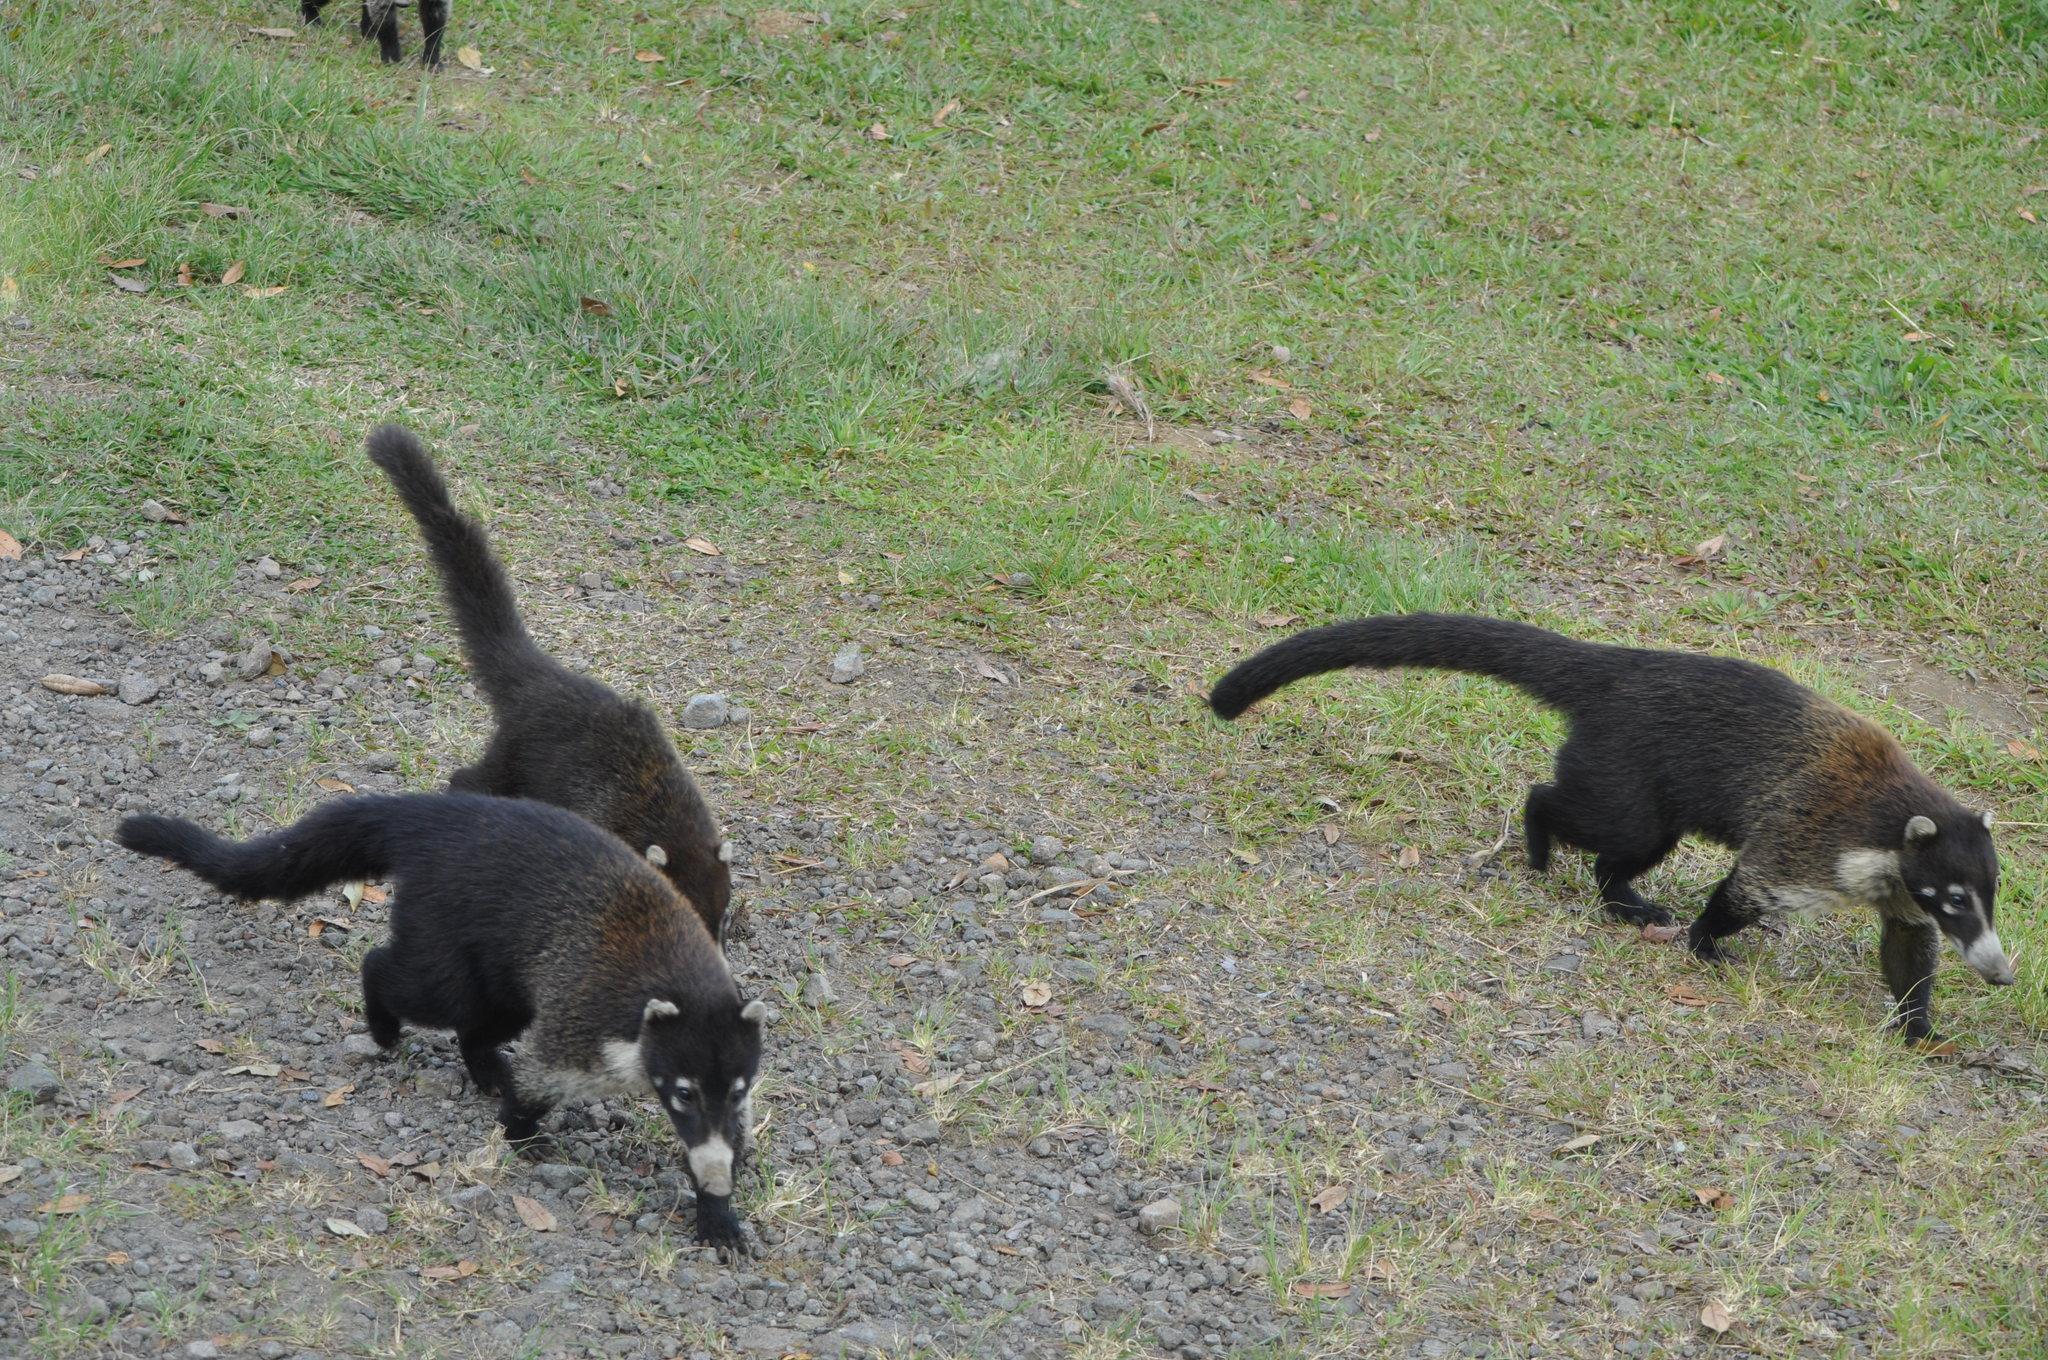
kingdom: Animalia
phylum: Chordata
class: Mammalia
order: Carnivora
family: Procyonidae
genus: Nasua
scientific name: Nasua narica
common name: White-nosed coati
